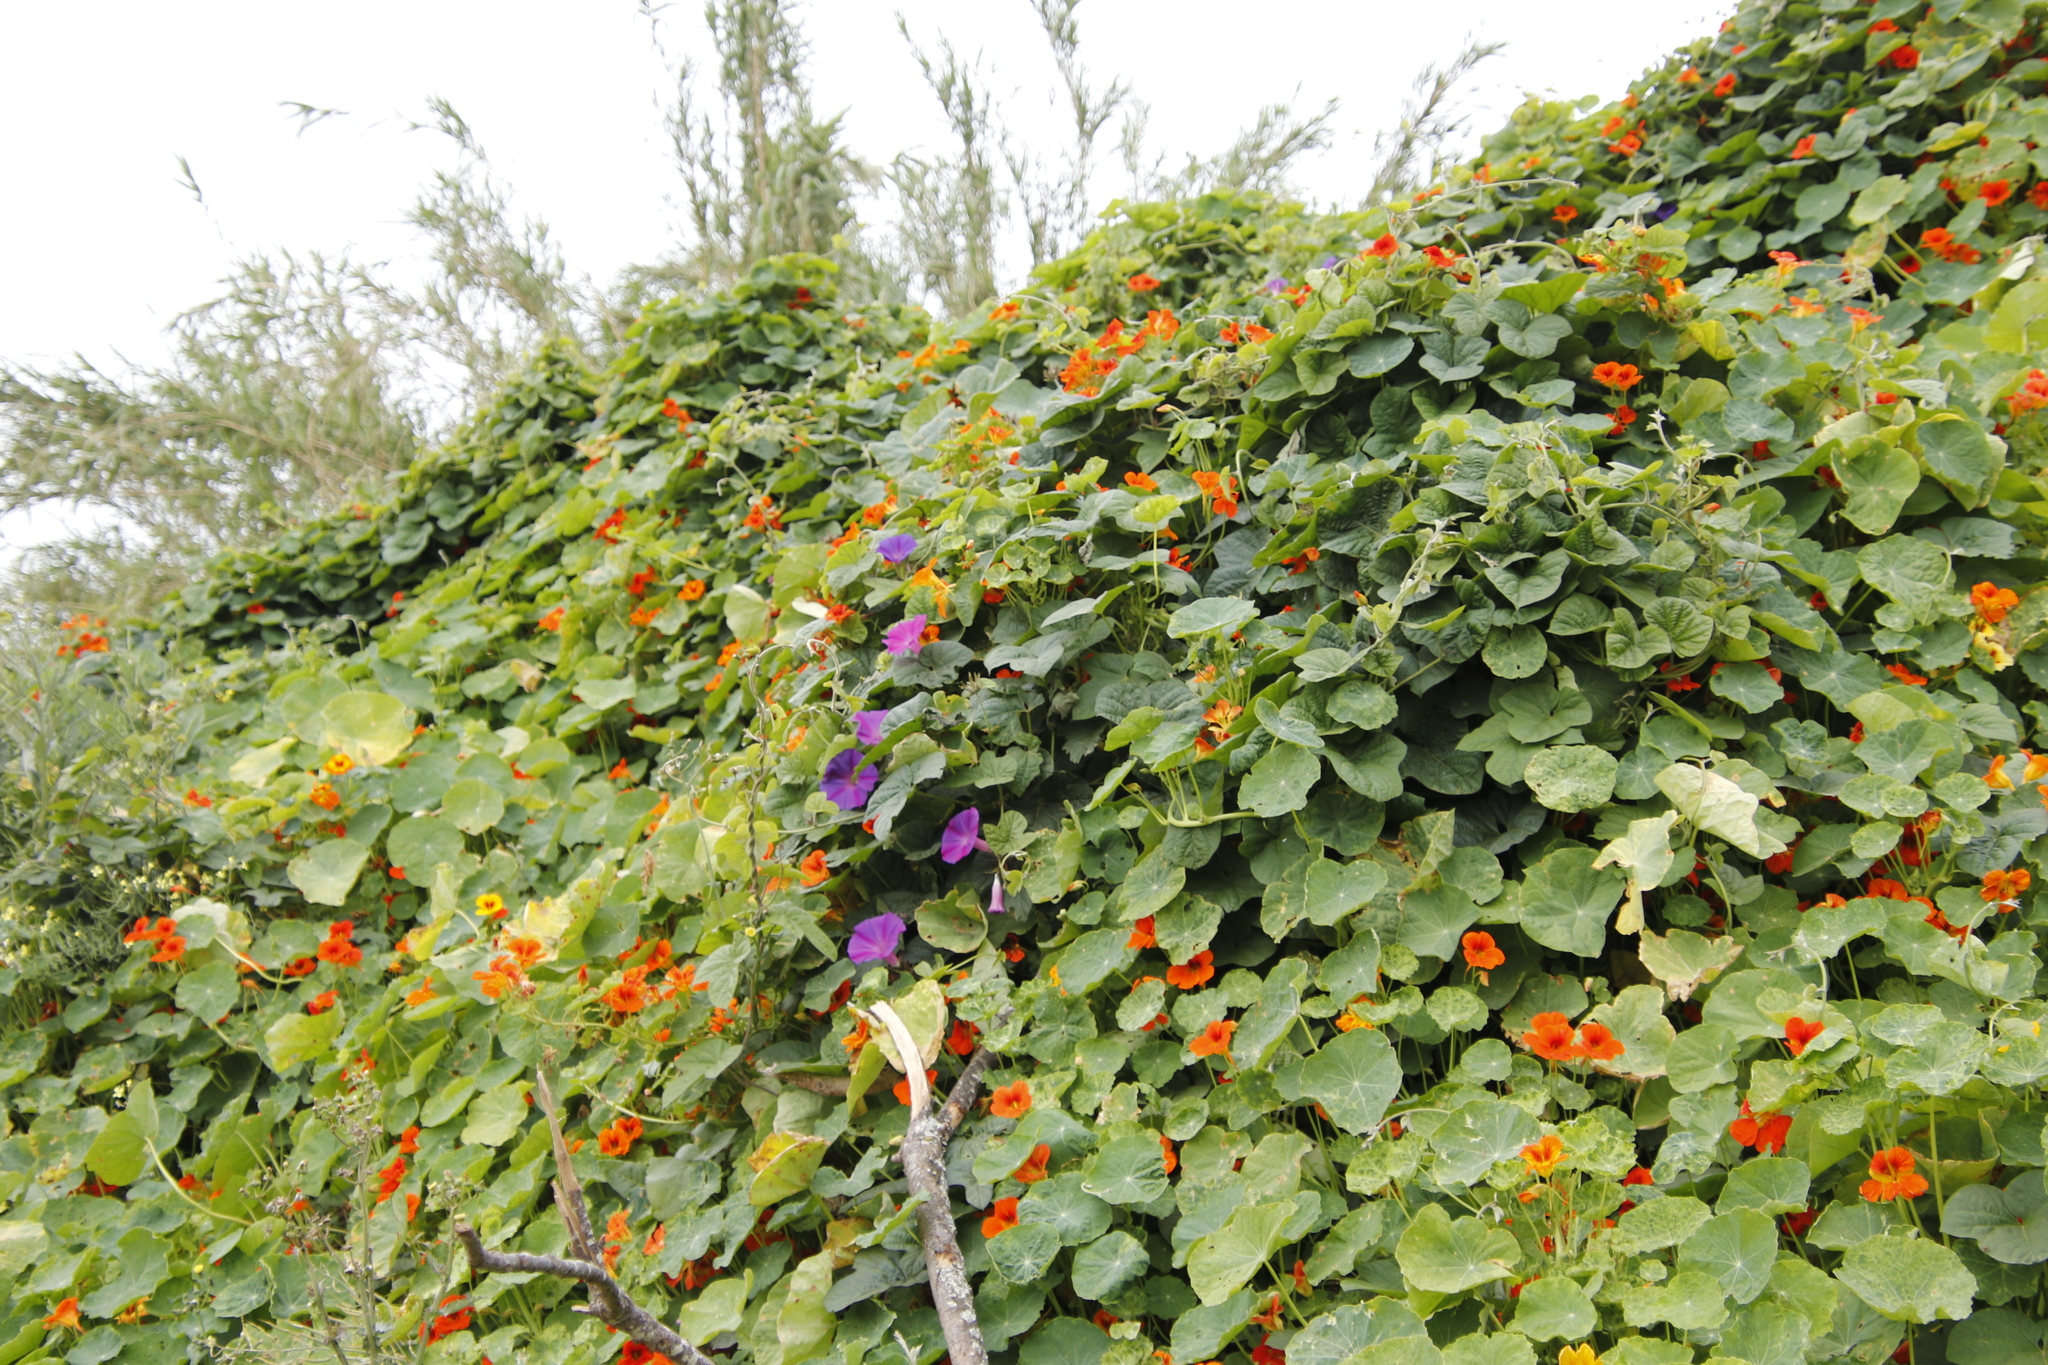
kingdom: Plantae
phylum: Tracheophyta
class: Magnoliopsida
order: Brassicales
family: Tropaeolaceae
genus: Tropaeolum
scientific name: Tropaeolum majus
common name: Nasturtium
